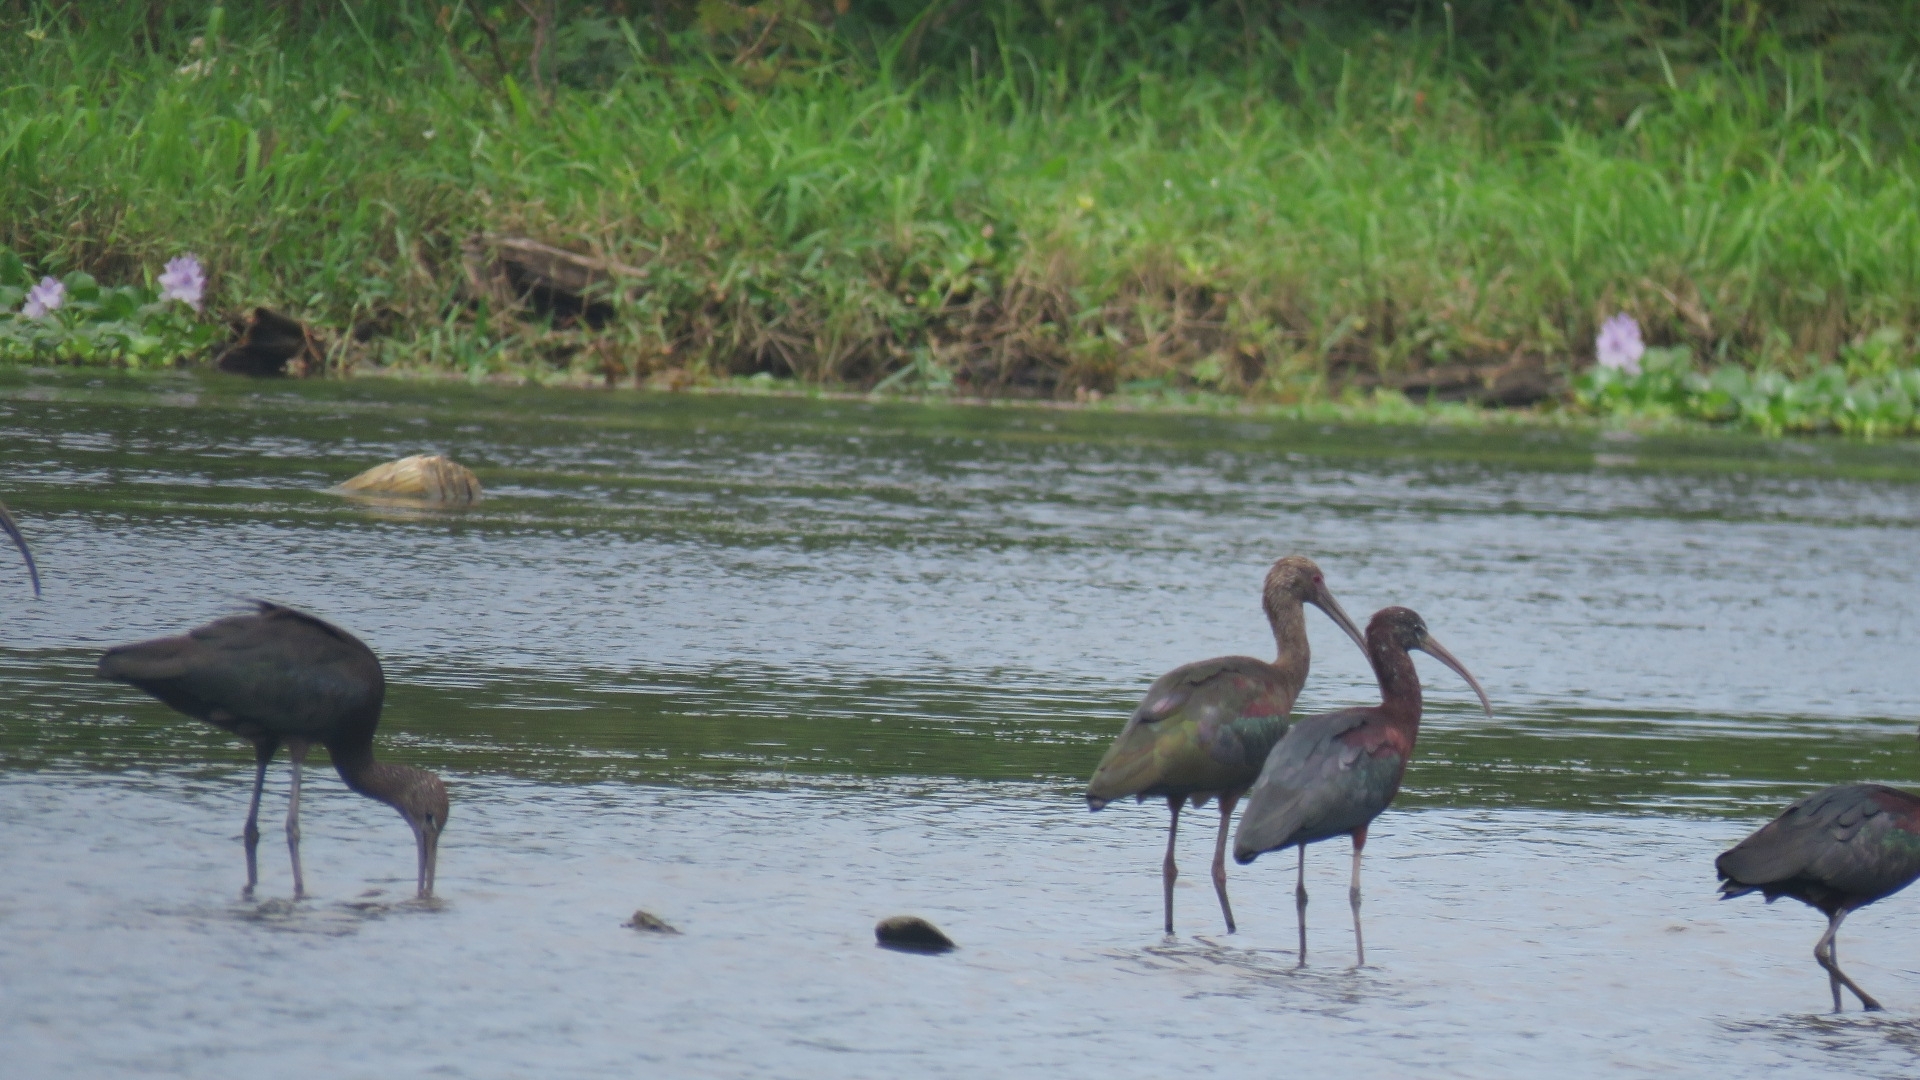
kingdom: Animalia
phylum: Chordata
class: Aves
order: Pelecaniformes
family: Threskiornithidae
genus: Plegadis
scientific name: Plegadis chihi
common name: White-faced ibis
